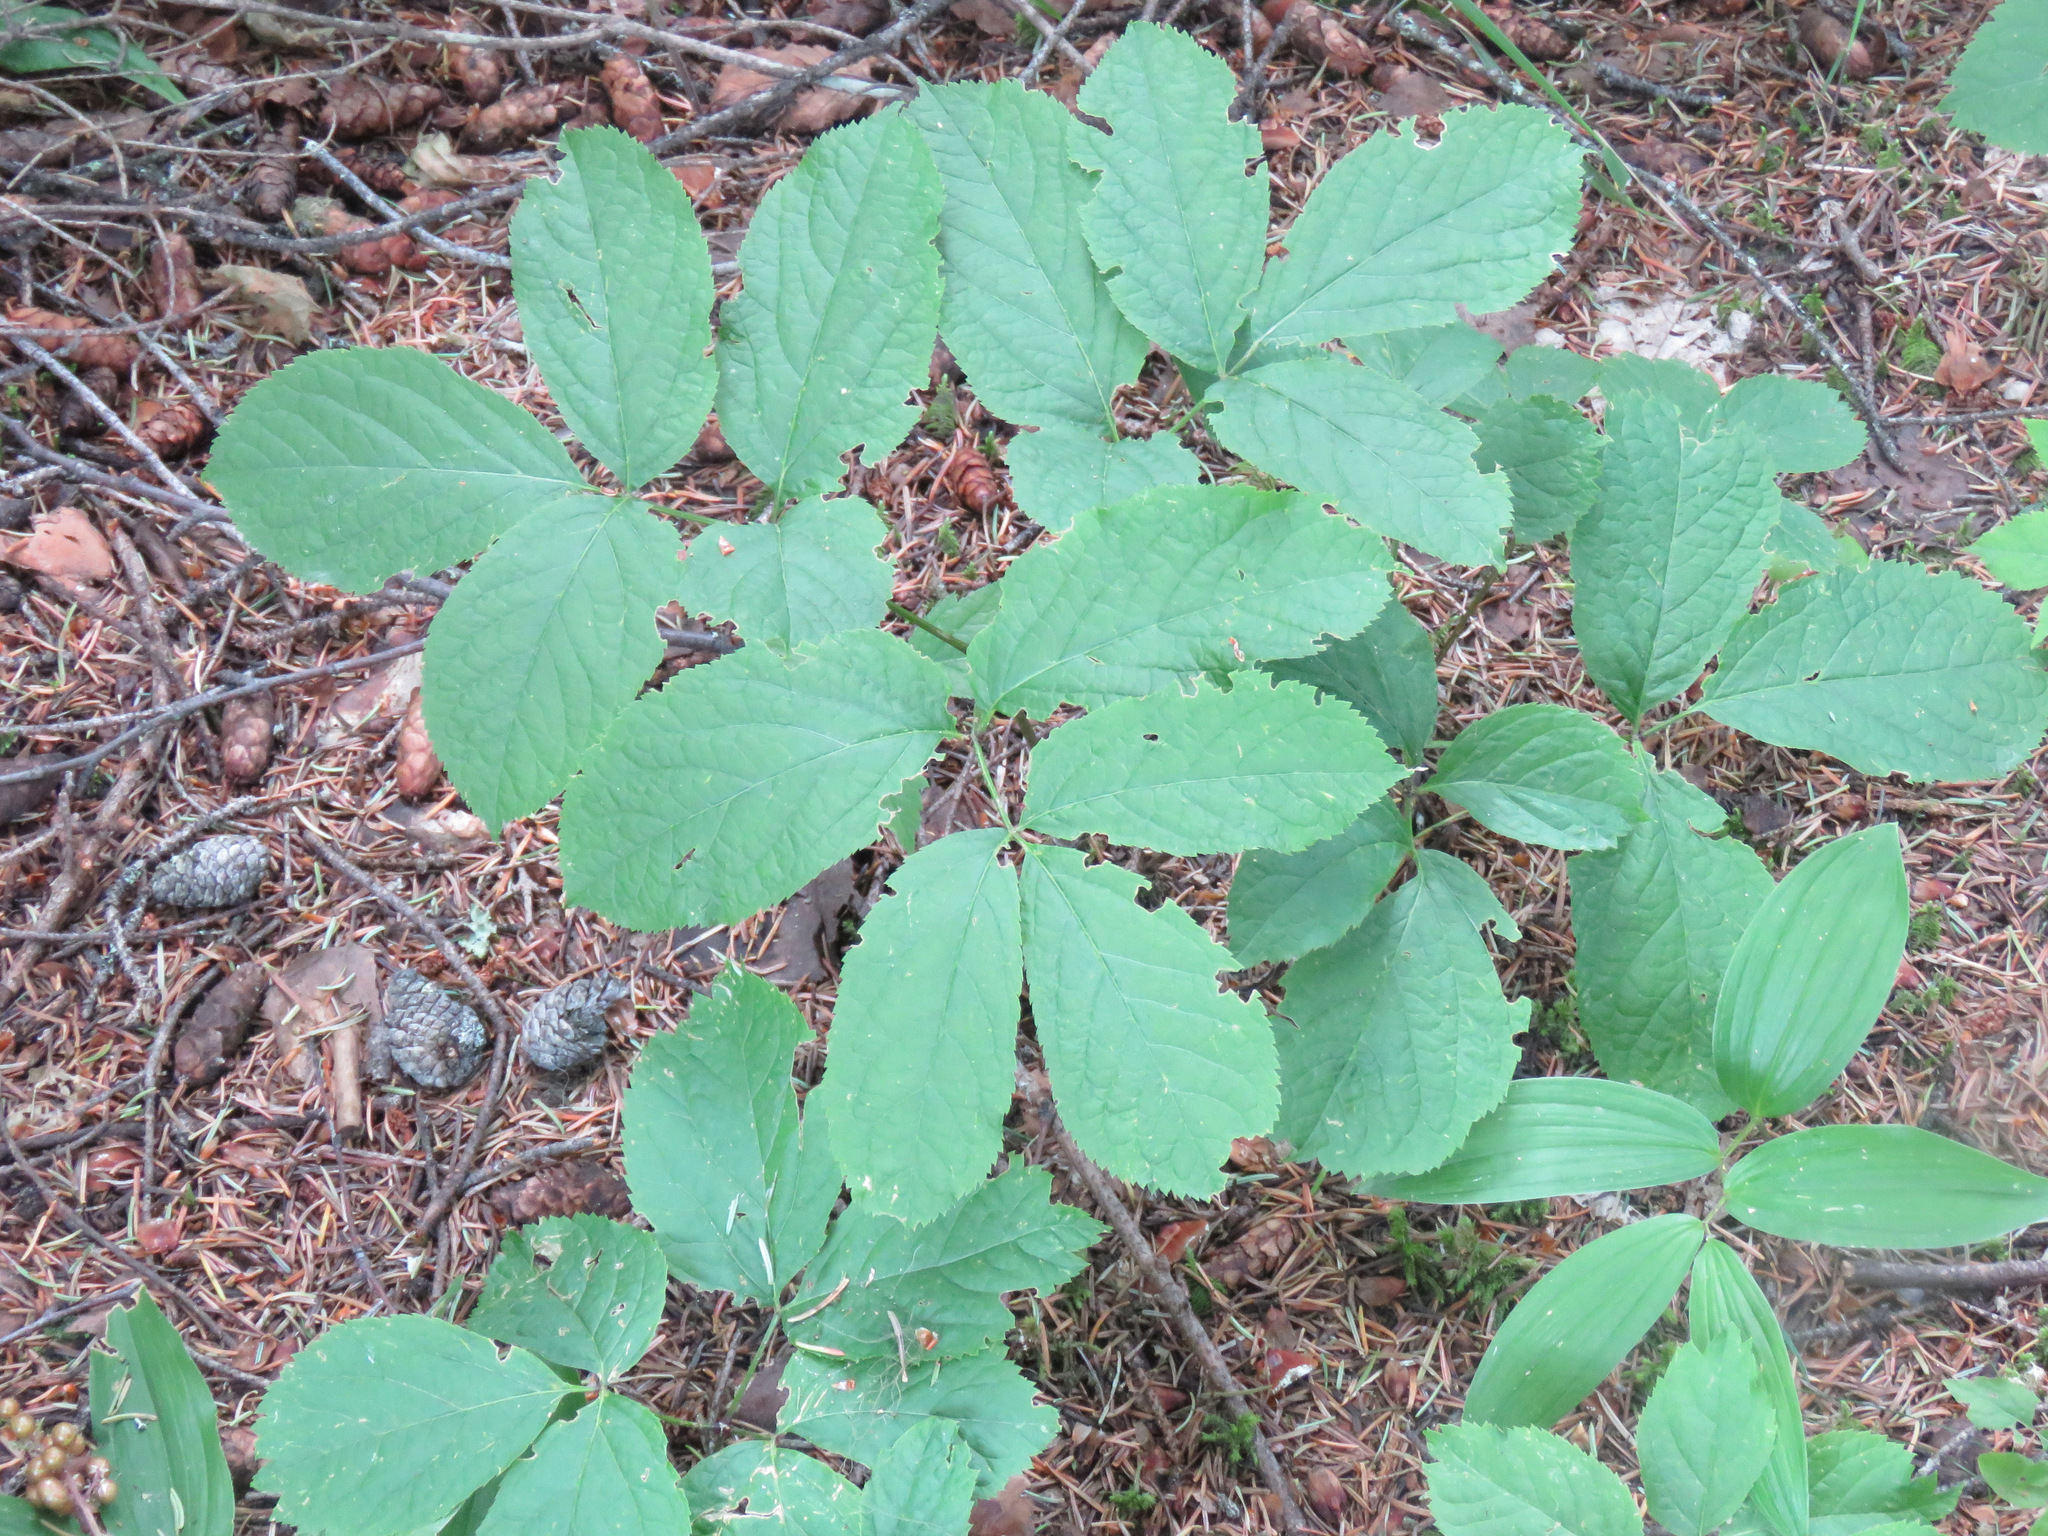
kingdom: Plantae
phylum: Tracheophyta
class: Magnoliopsida
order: Apiales
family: Araliaceae
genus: Aralia
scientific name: Aralia nudicaulis
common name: Wild sarsaparilla
